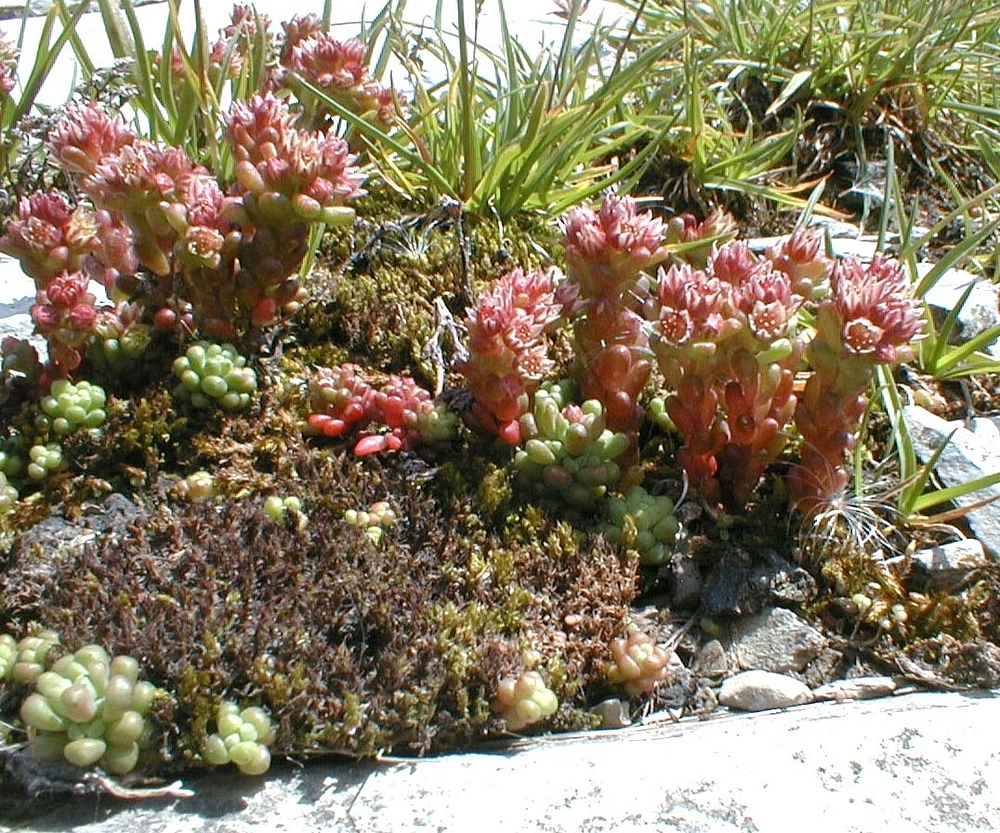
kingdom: Plantae
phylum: Tracheophyta
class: Magnoliopsida
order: Saxifragales
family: Crassulaceae
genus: Sedum
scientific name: Sedum atratum
